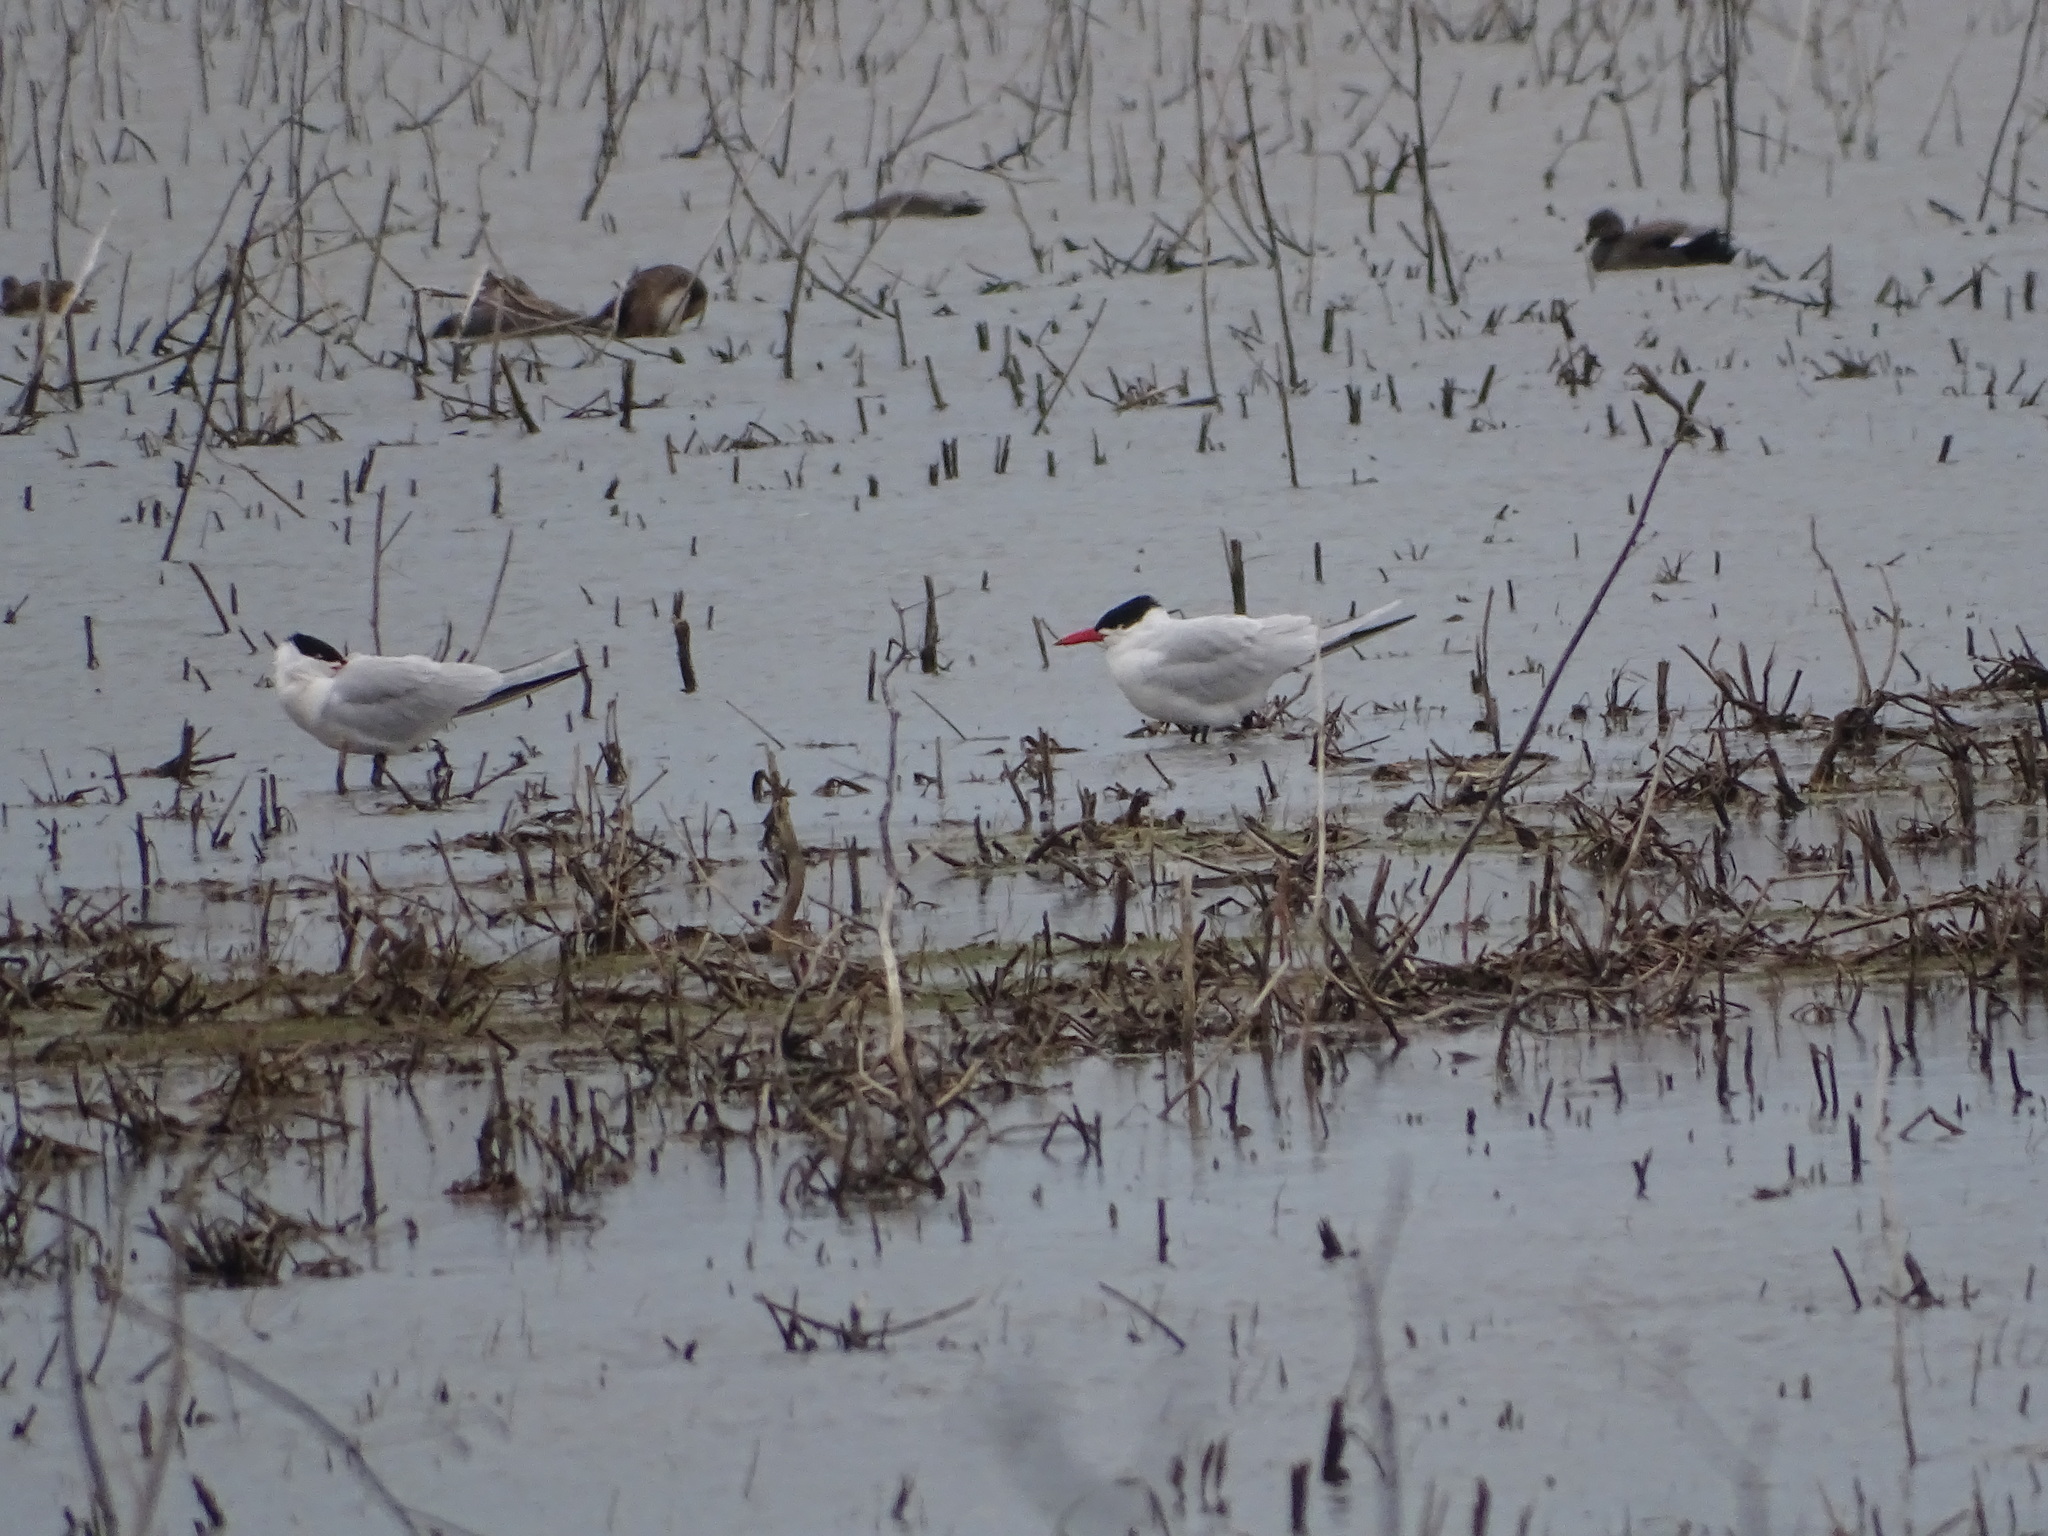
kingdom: Animalia
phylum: Chordata
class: Aves
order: Charadriiformes
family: Laridae
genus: Hydroprogne
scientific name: Hydroprogne caspia
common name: Caspian tern
